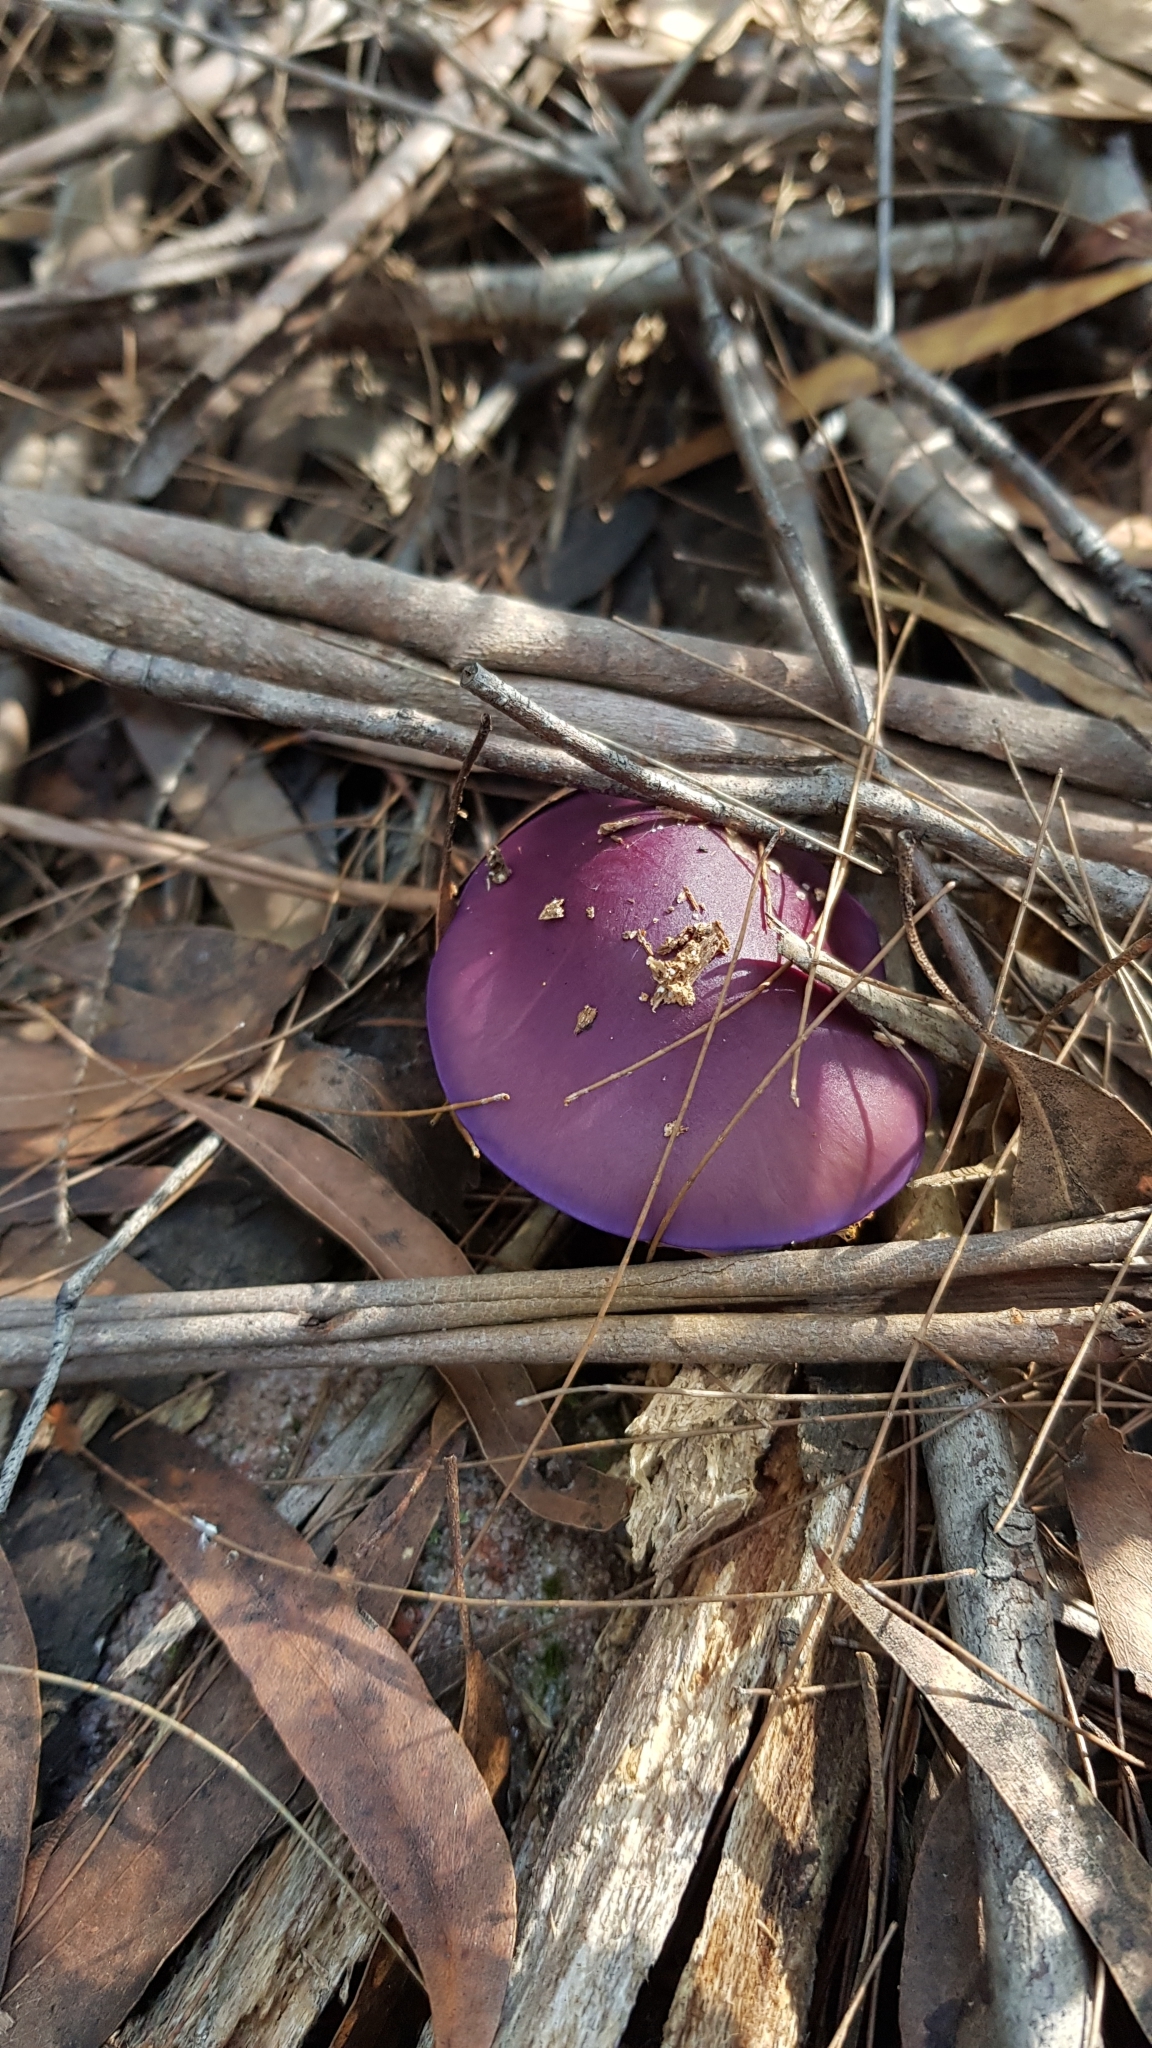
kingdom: Fungi
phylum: Basidiomycota
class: Agaricomycetes
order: Agaricales
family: Cortinariaceae
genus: Cortinarius
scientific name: Cortinarius archeri
